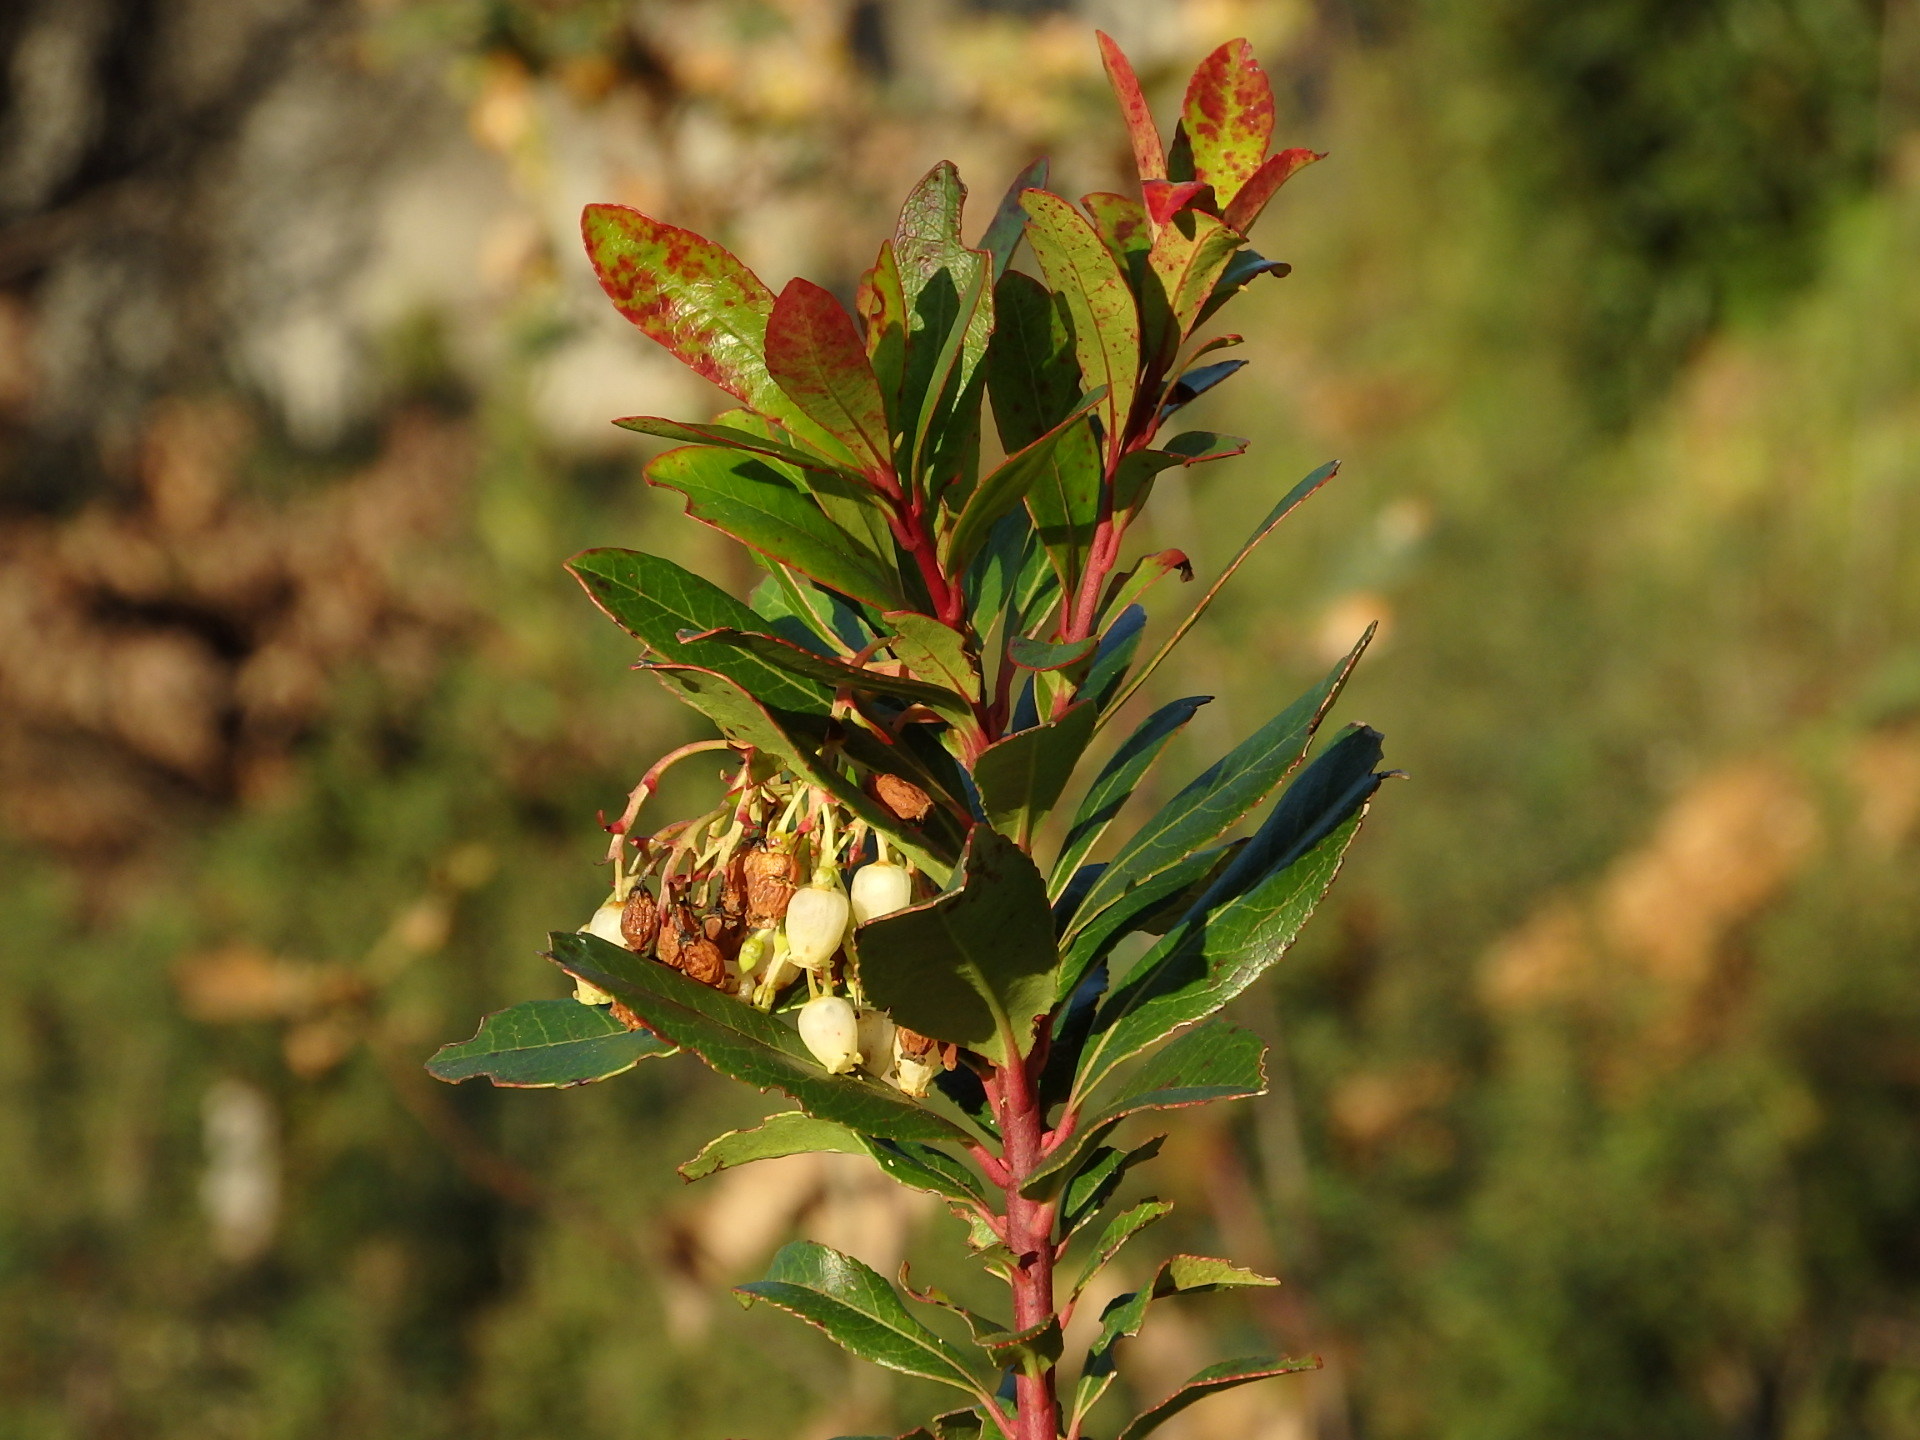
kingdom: Plantae
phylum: Tracheophyta
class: Magnoliopsida
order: Ericales
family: Ericaceae
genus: Arbutus
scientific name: Arbutus unedo
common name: Strawberry-tree
